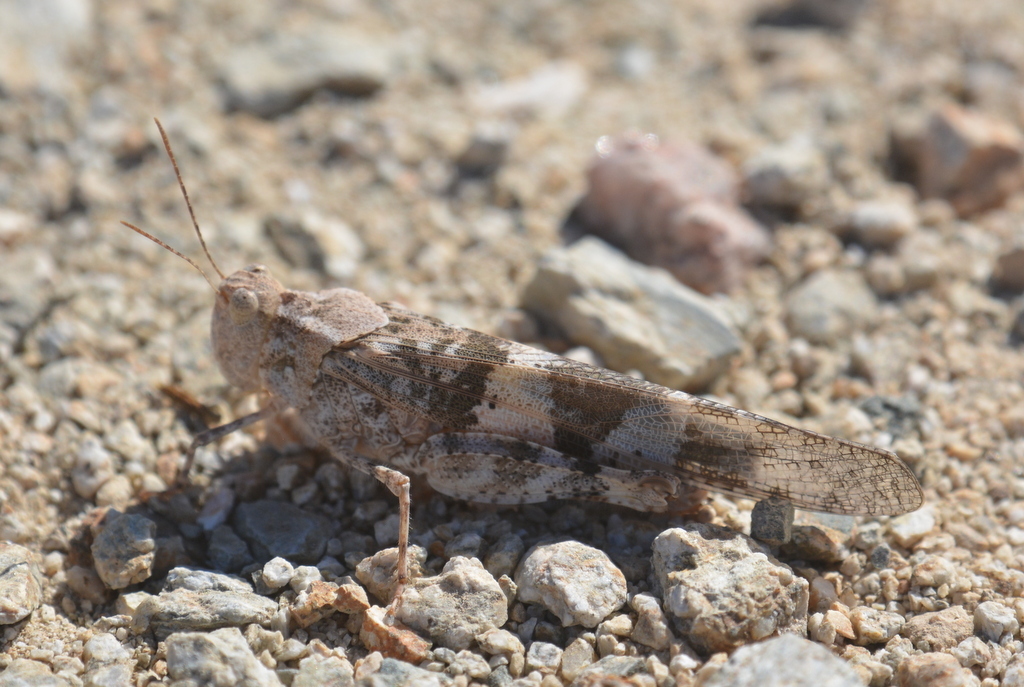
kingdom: Animalia
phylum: Arthropoda
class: Insecta
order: Orthoptera
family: Acrididae
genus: Trimerotropis
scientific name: Trimerotropis pallidipennis
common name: Pallid-winged grasshopper
